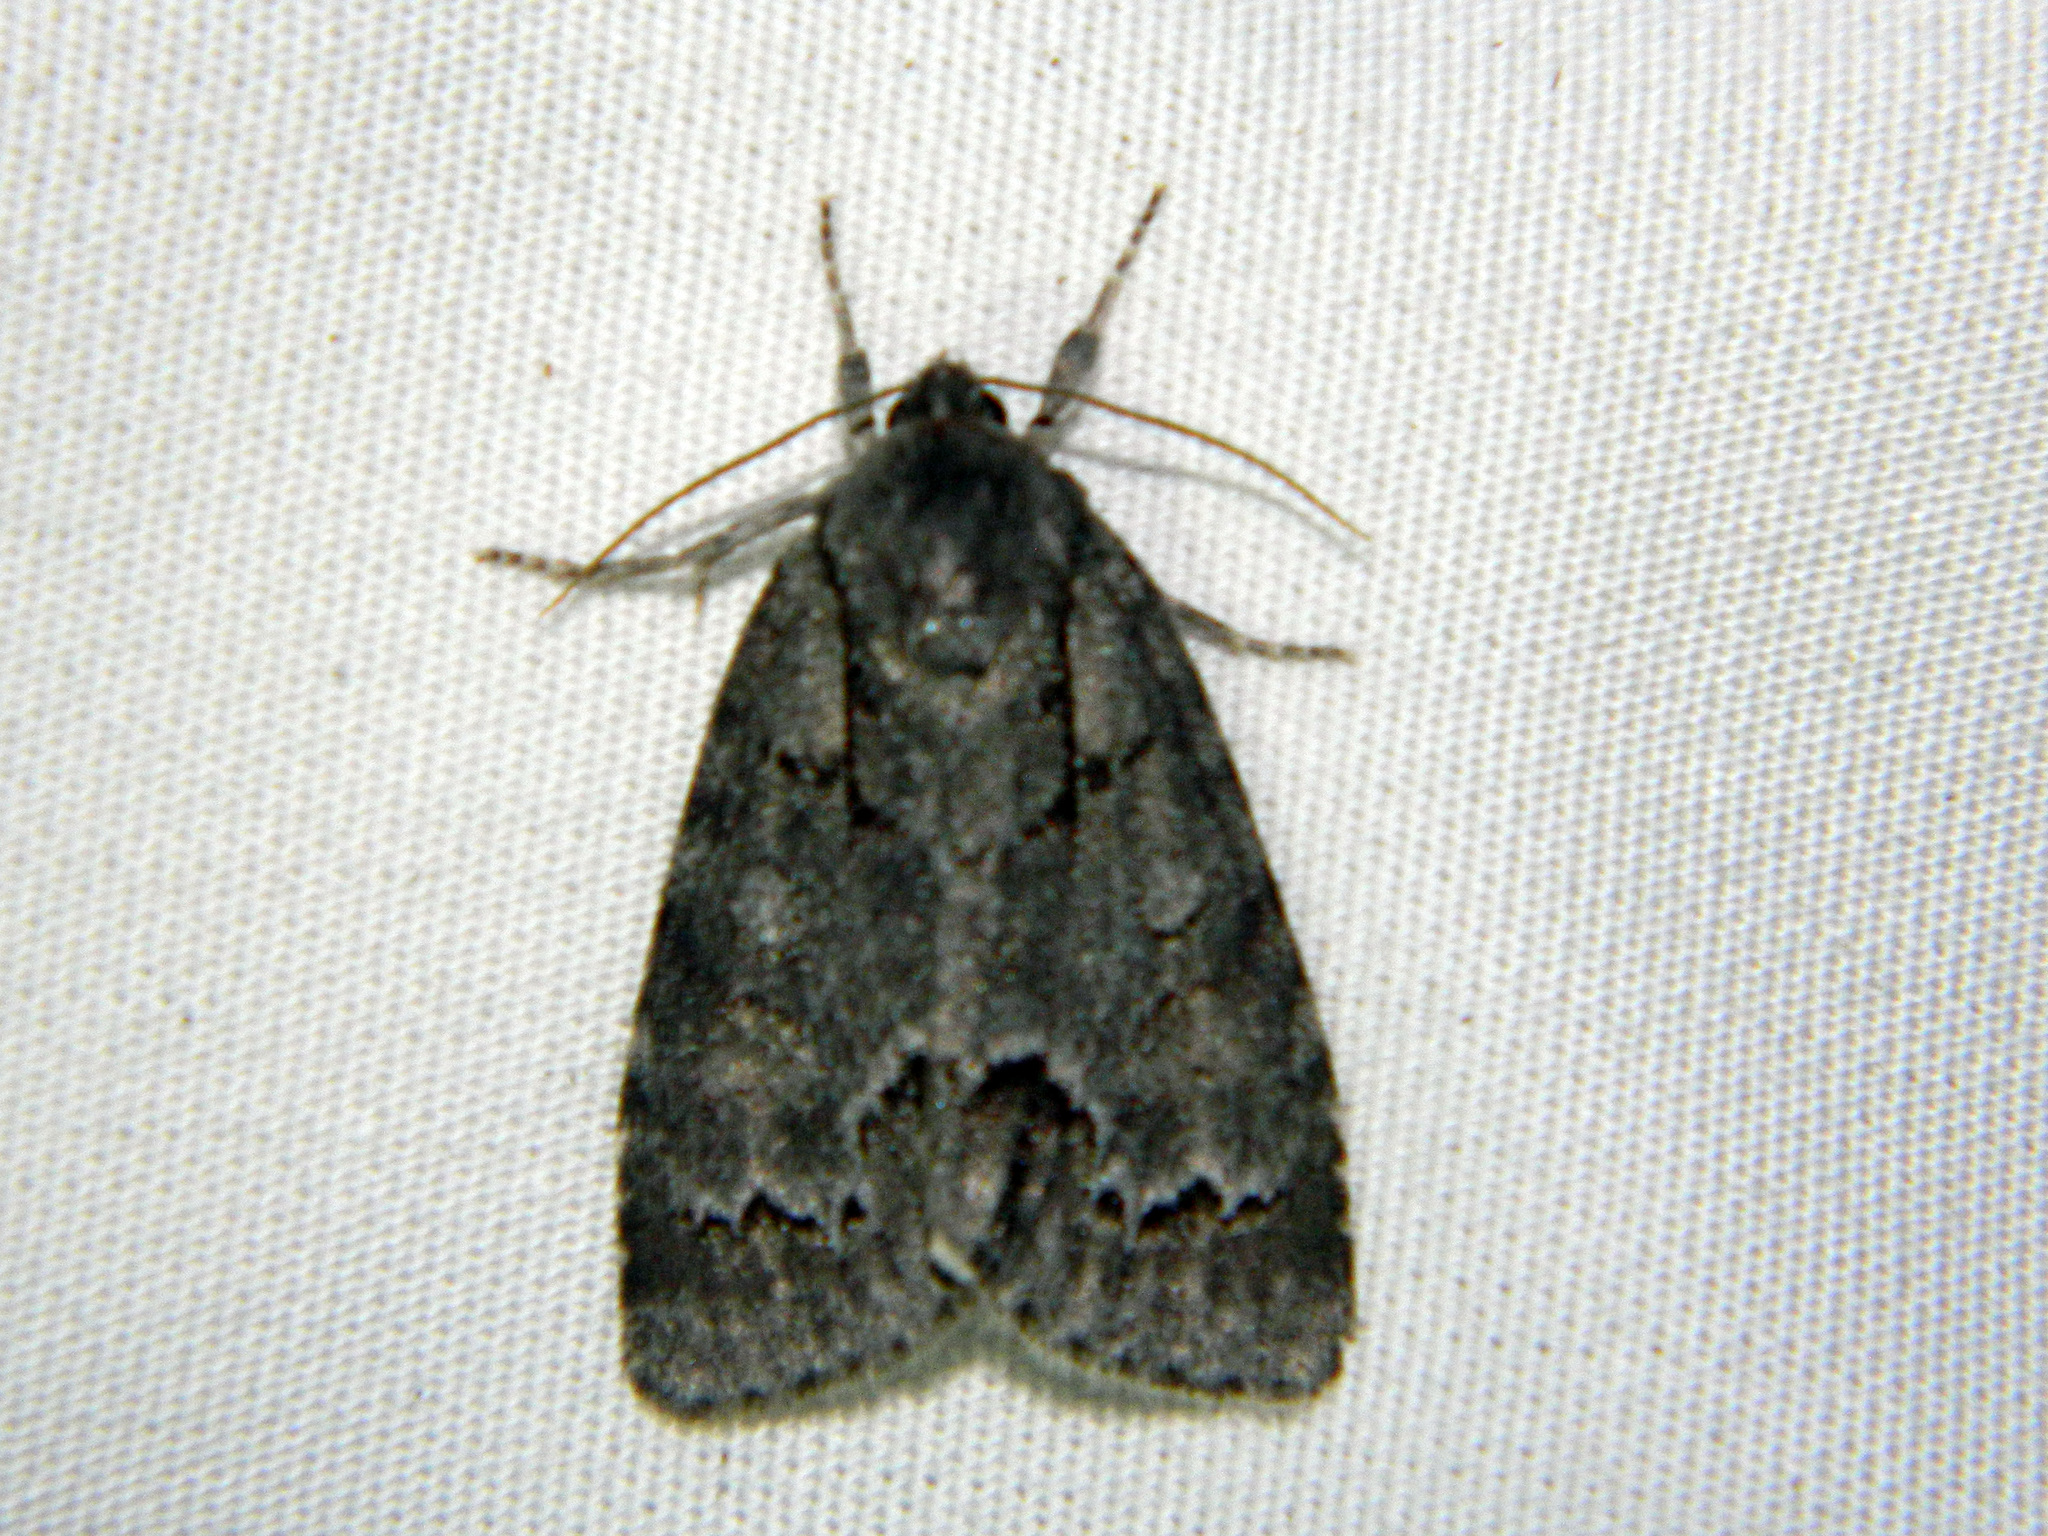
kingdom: Animalia
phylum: Arthropoda
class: Insecta
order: Lepidoptera
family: Noctuidae
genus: Acronicta
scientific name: Acronicta grisea
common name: Gray dagger
